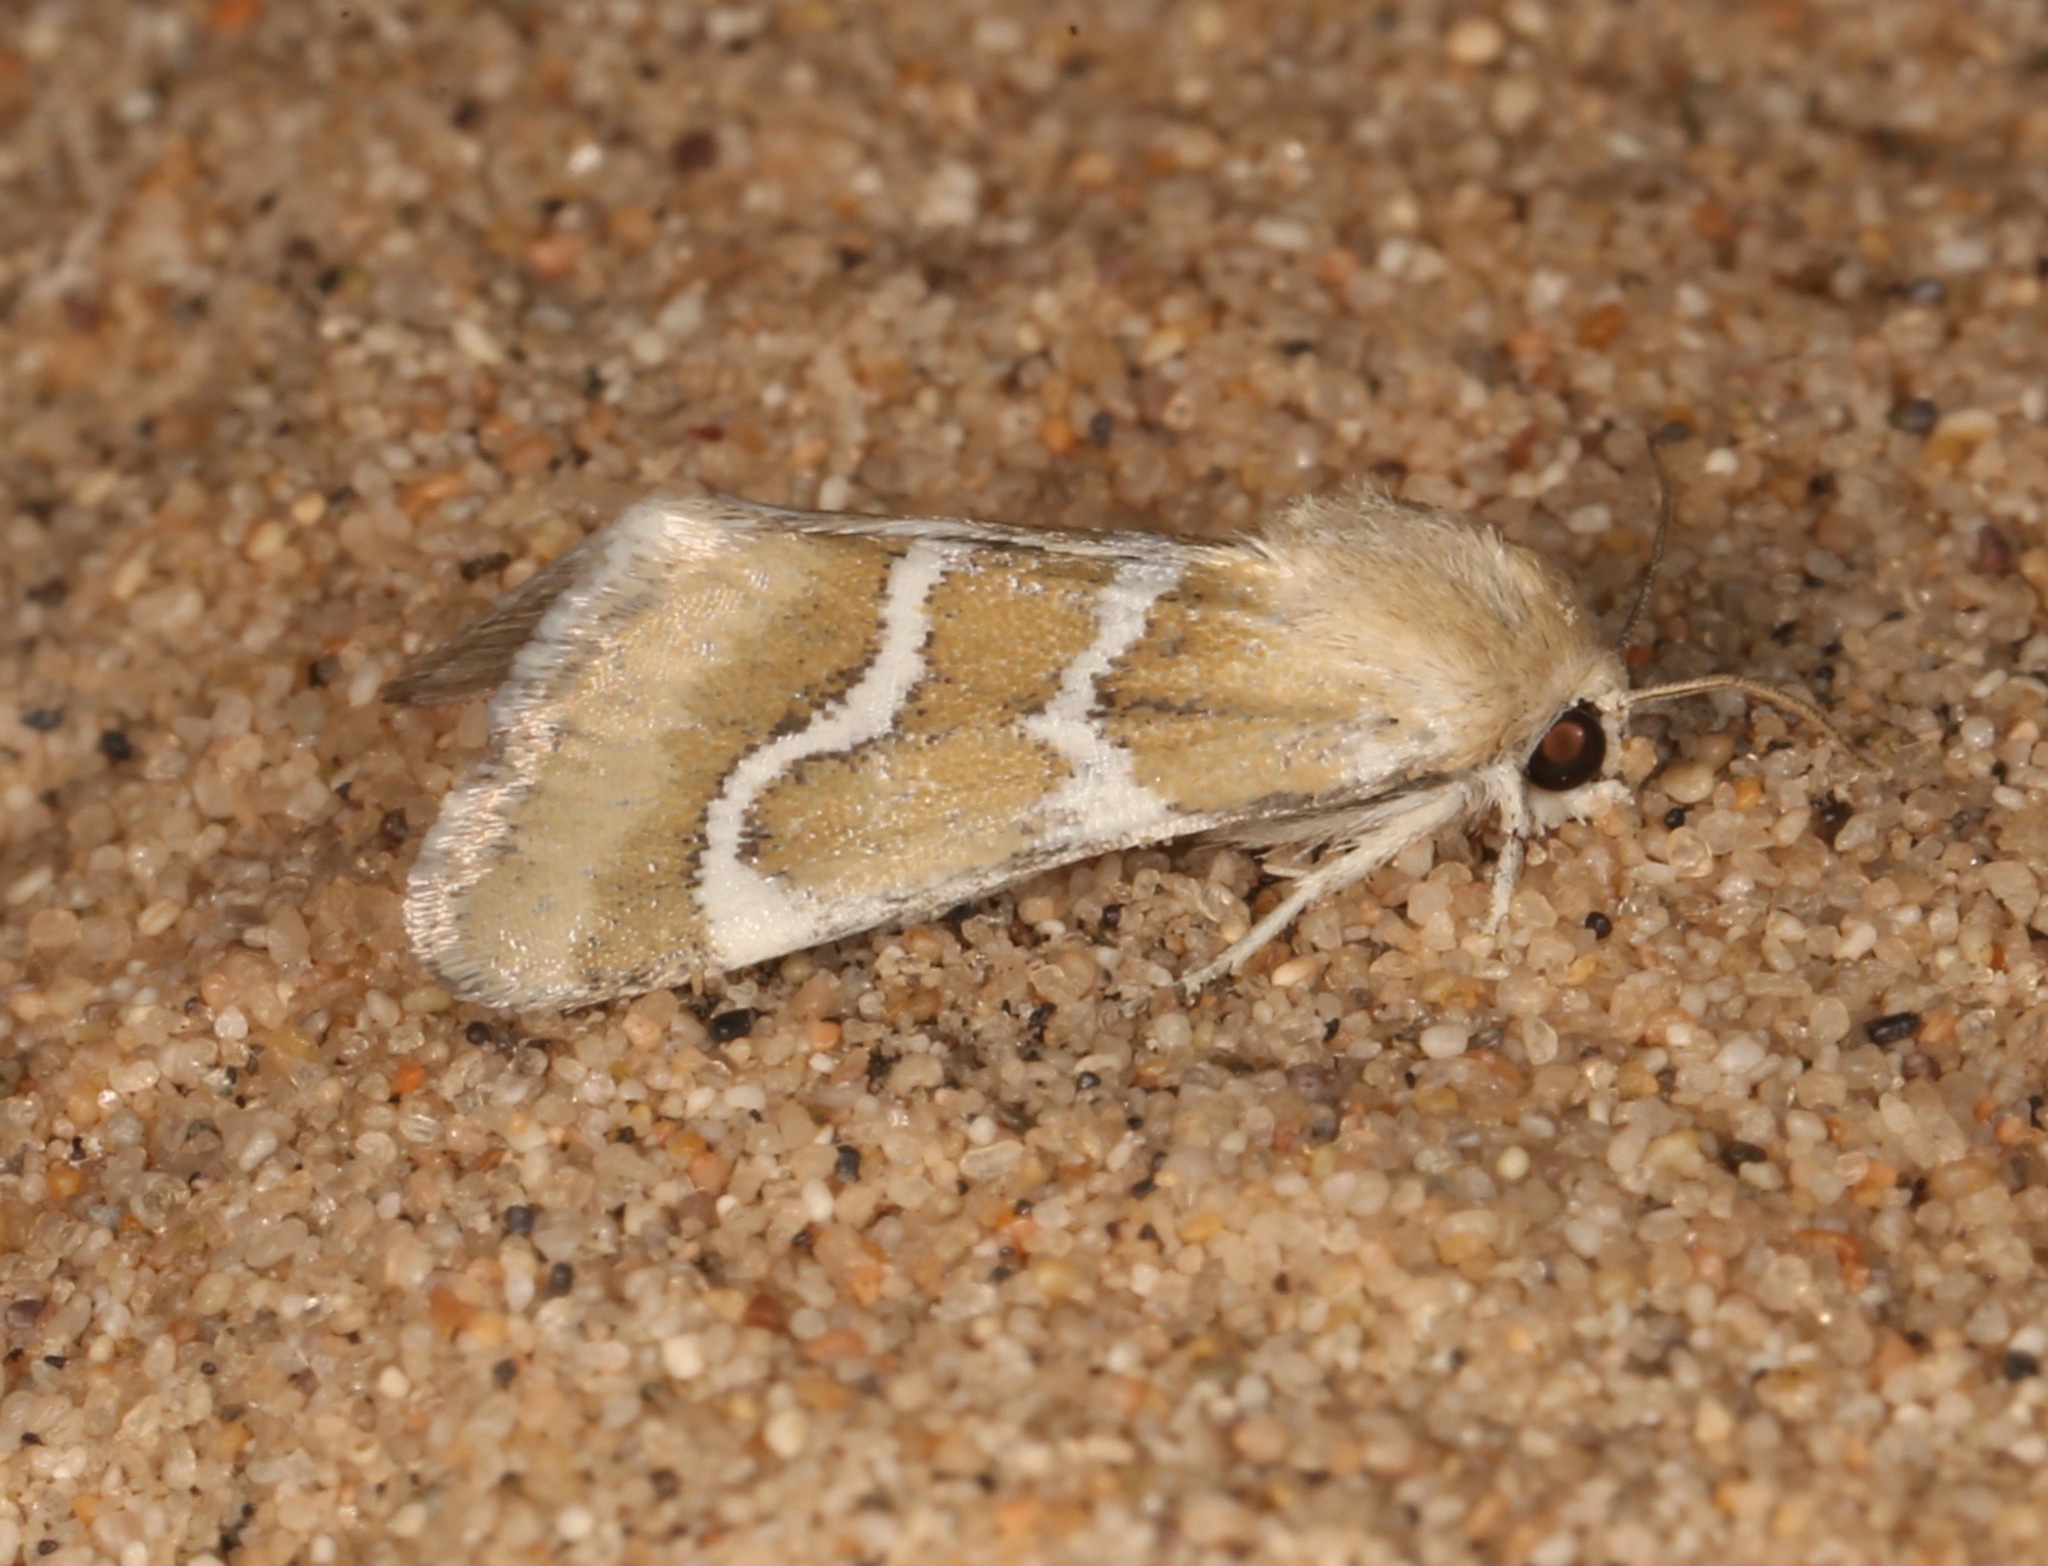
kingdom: Animalia
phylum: Arthropoda
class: Insecta
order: Lepidoptera
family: Noctuidae
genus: Schinia
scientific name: Schinia biundulata
